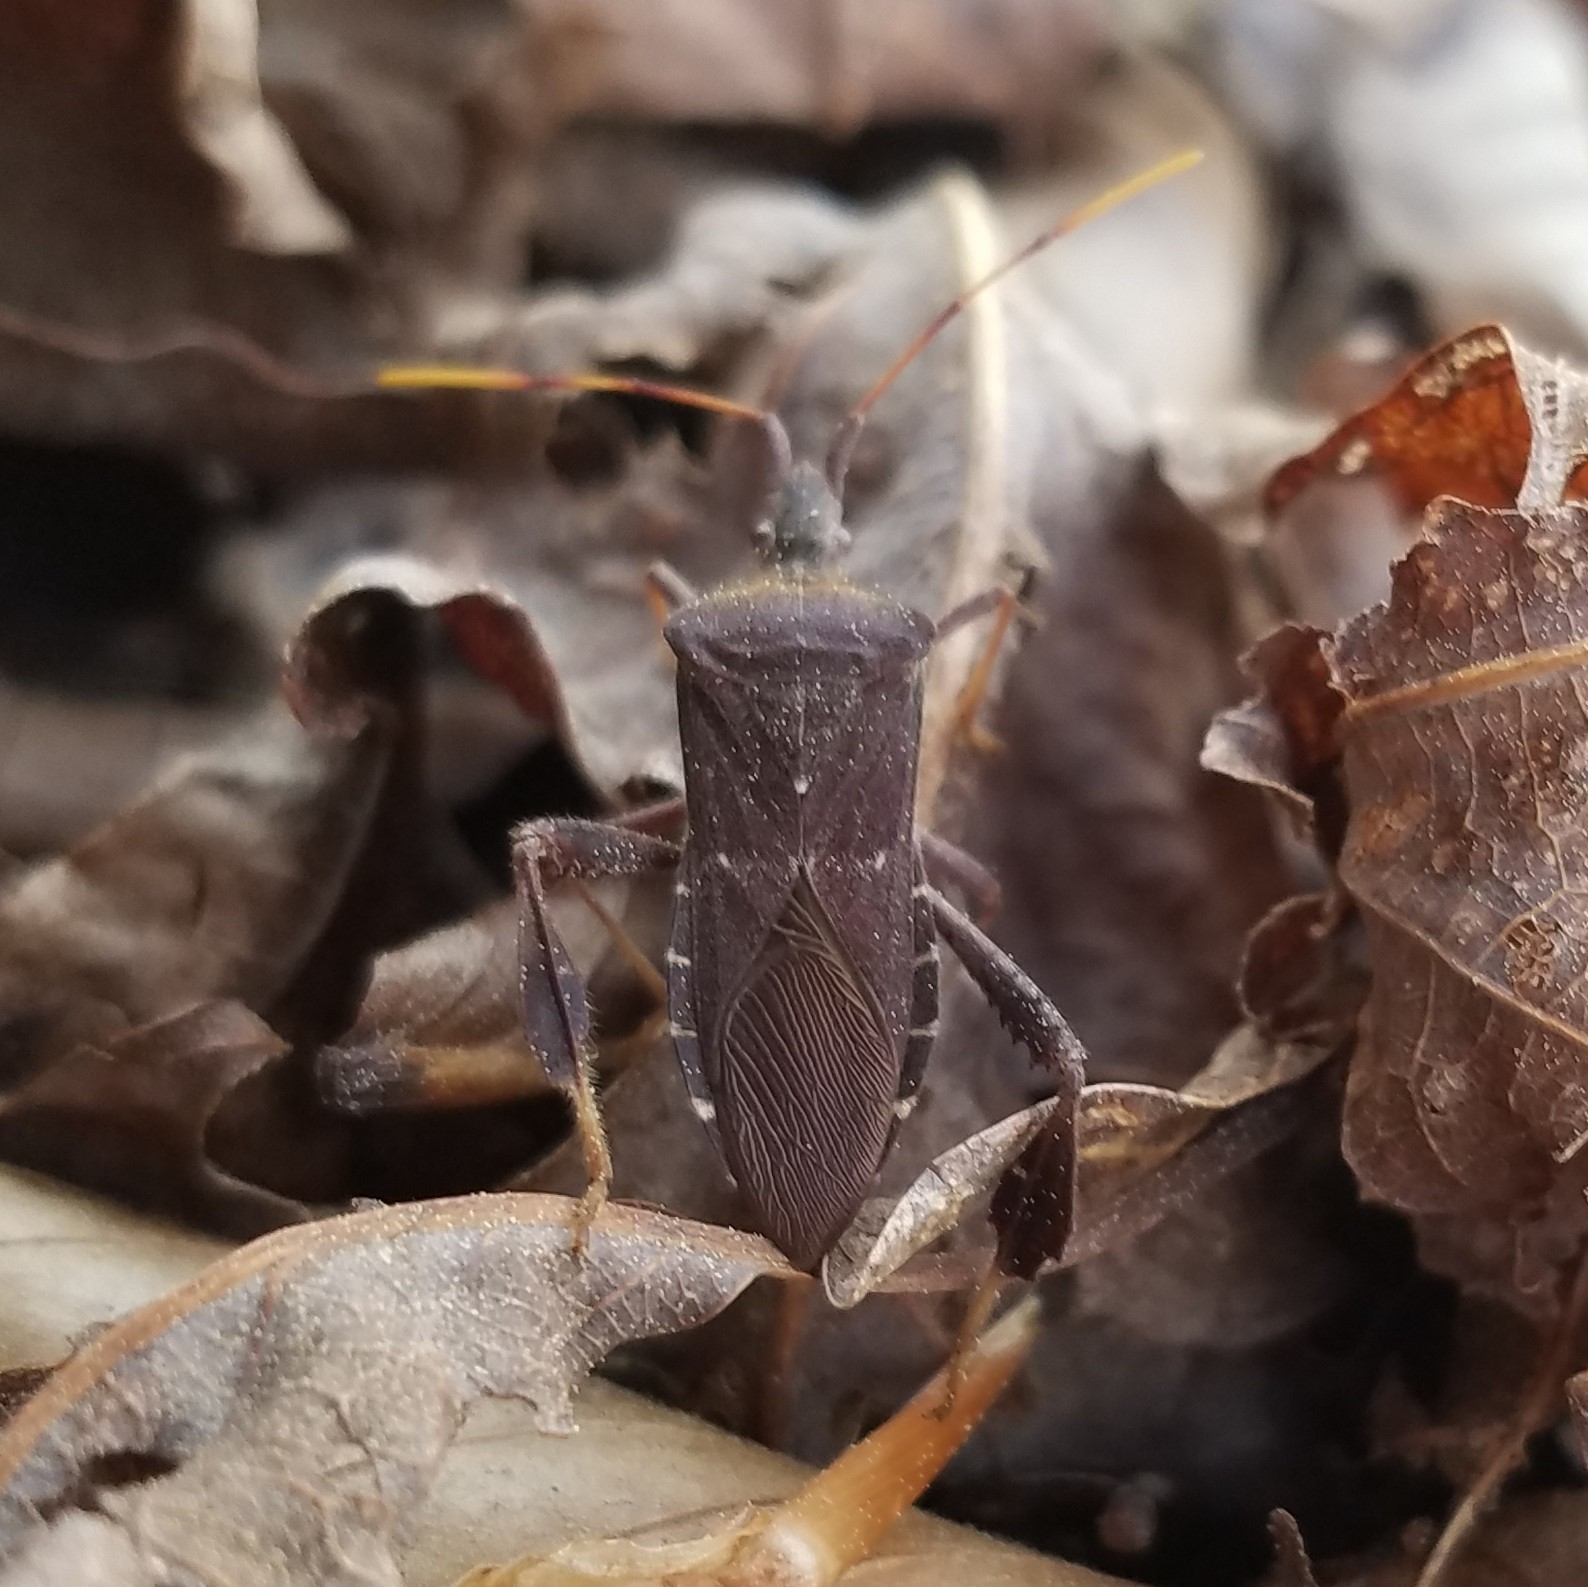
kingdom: Animalia
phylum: Arthropoda
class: Insecta
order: Hemiptera
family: Coreidae
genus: Leptoglossus
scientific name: Leptoglossus oppositus
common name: Northern leaf-footed bug
